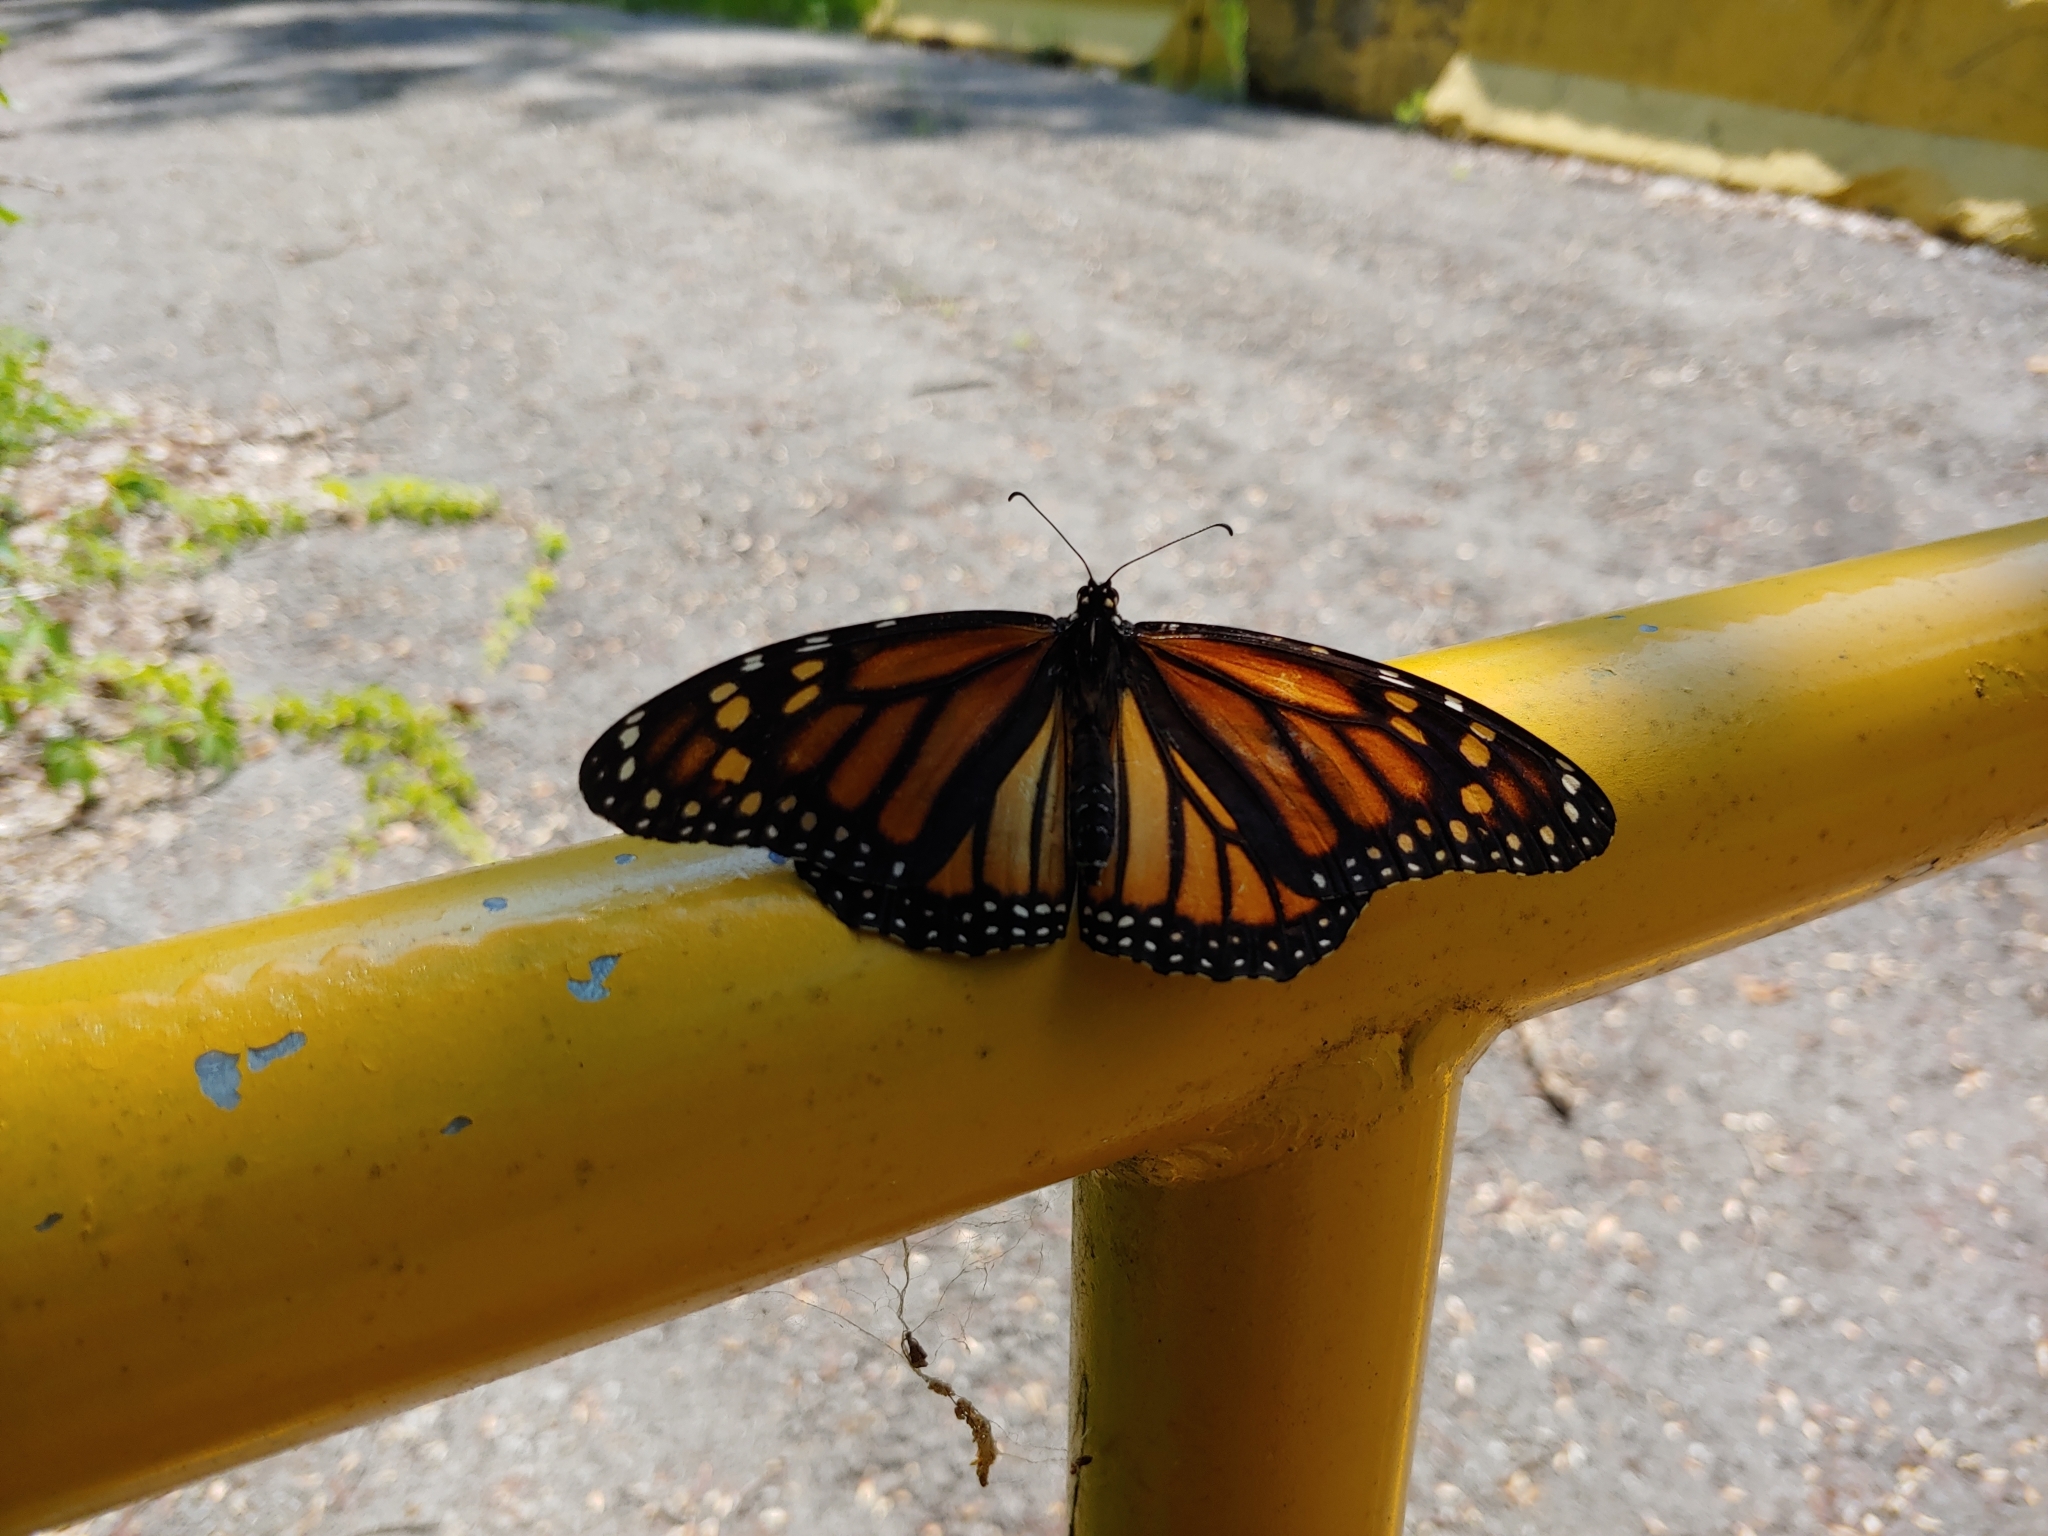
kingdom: Animalia
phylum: Arthropoda
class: Insecta
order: Lepidoptera
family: Nymphalidae
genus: Danaus
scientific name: Danaus plexippus
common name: Monarch
